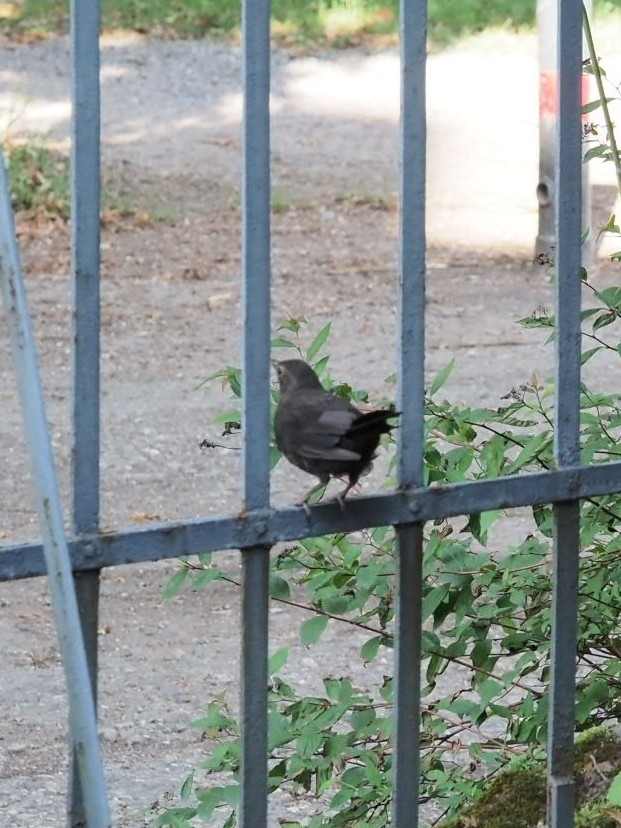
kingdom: Animalia
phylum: Chordata
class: Aves
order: Passeriformes
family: Turdidae
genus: Turdus
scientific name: Turdus merula
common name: Common blackbird
